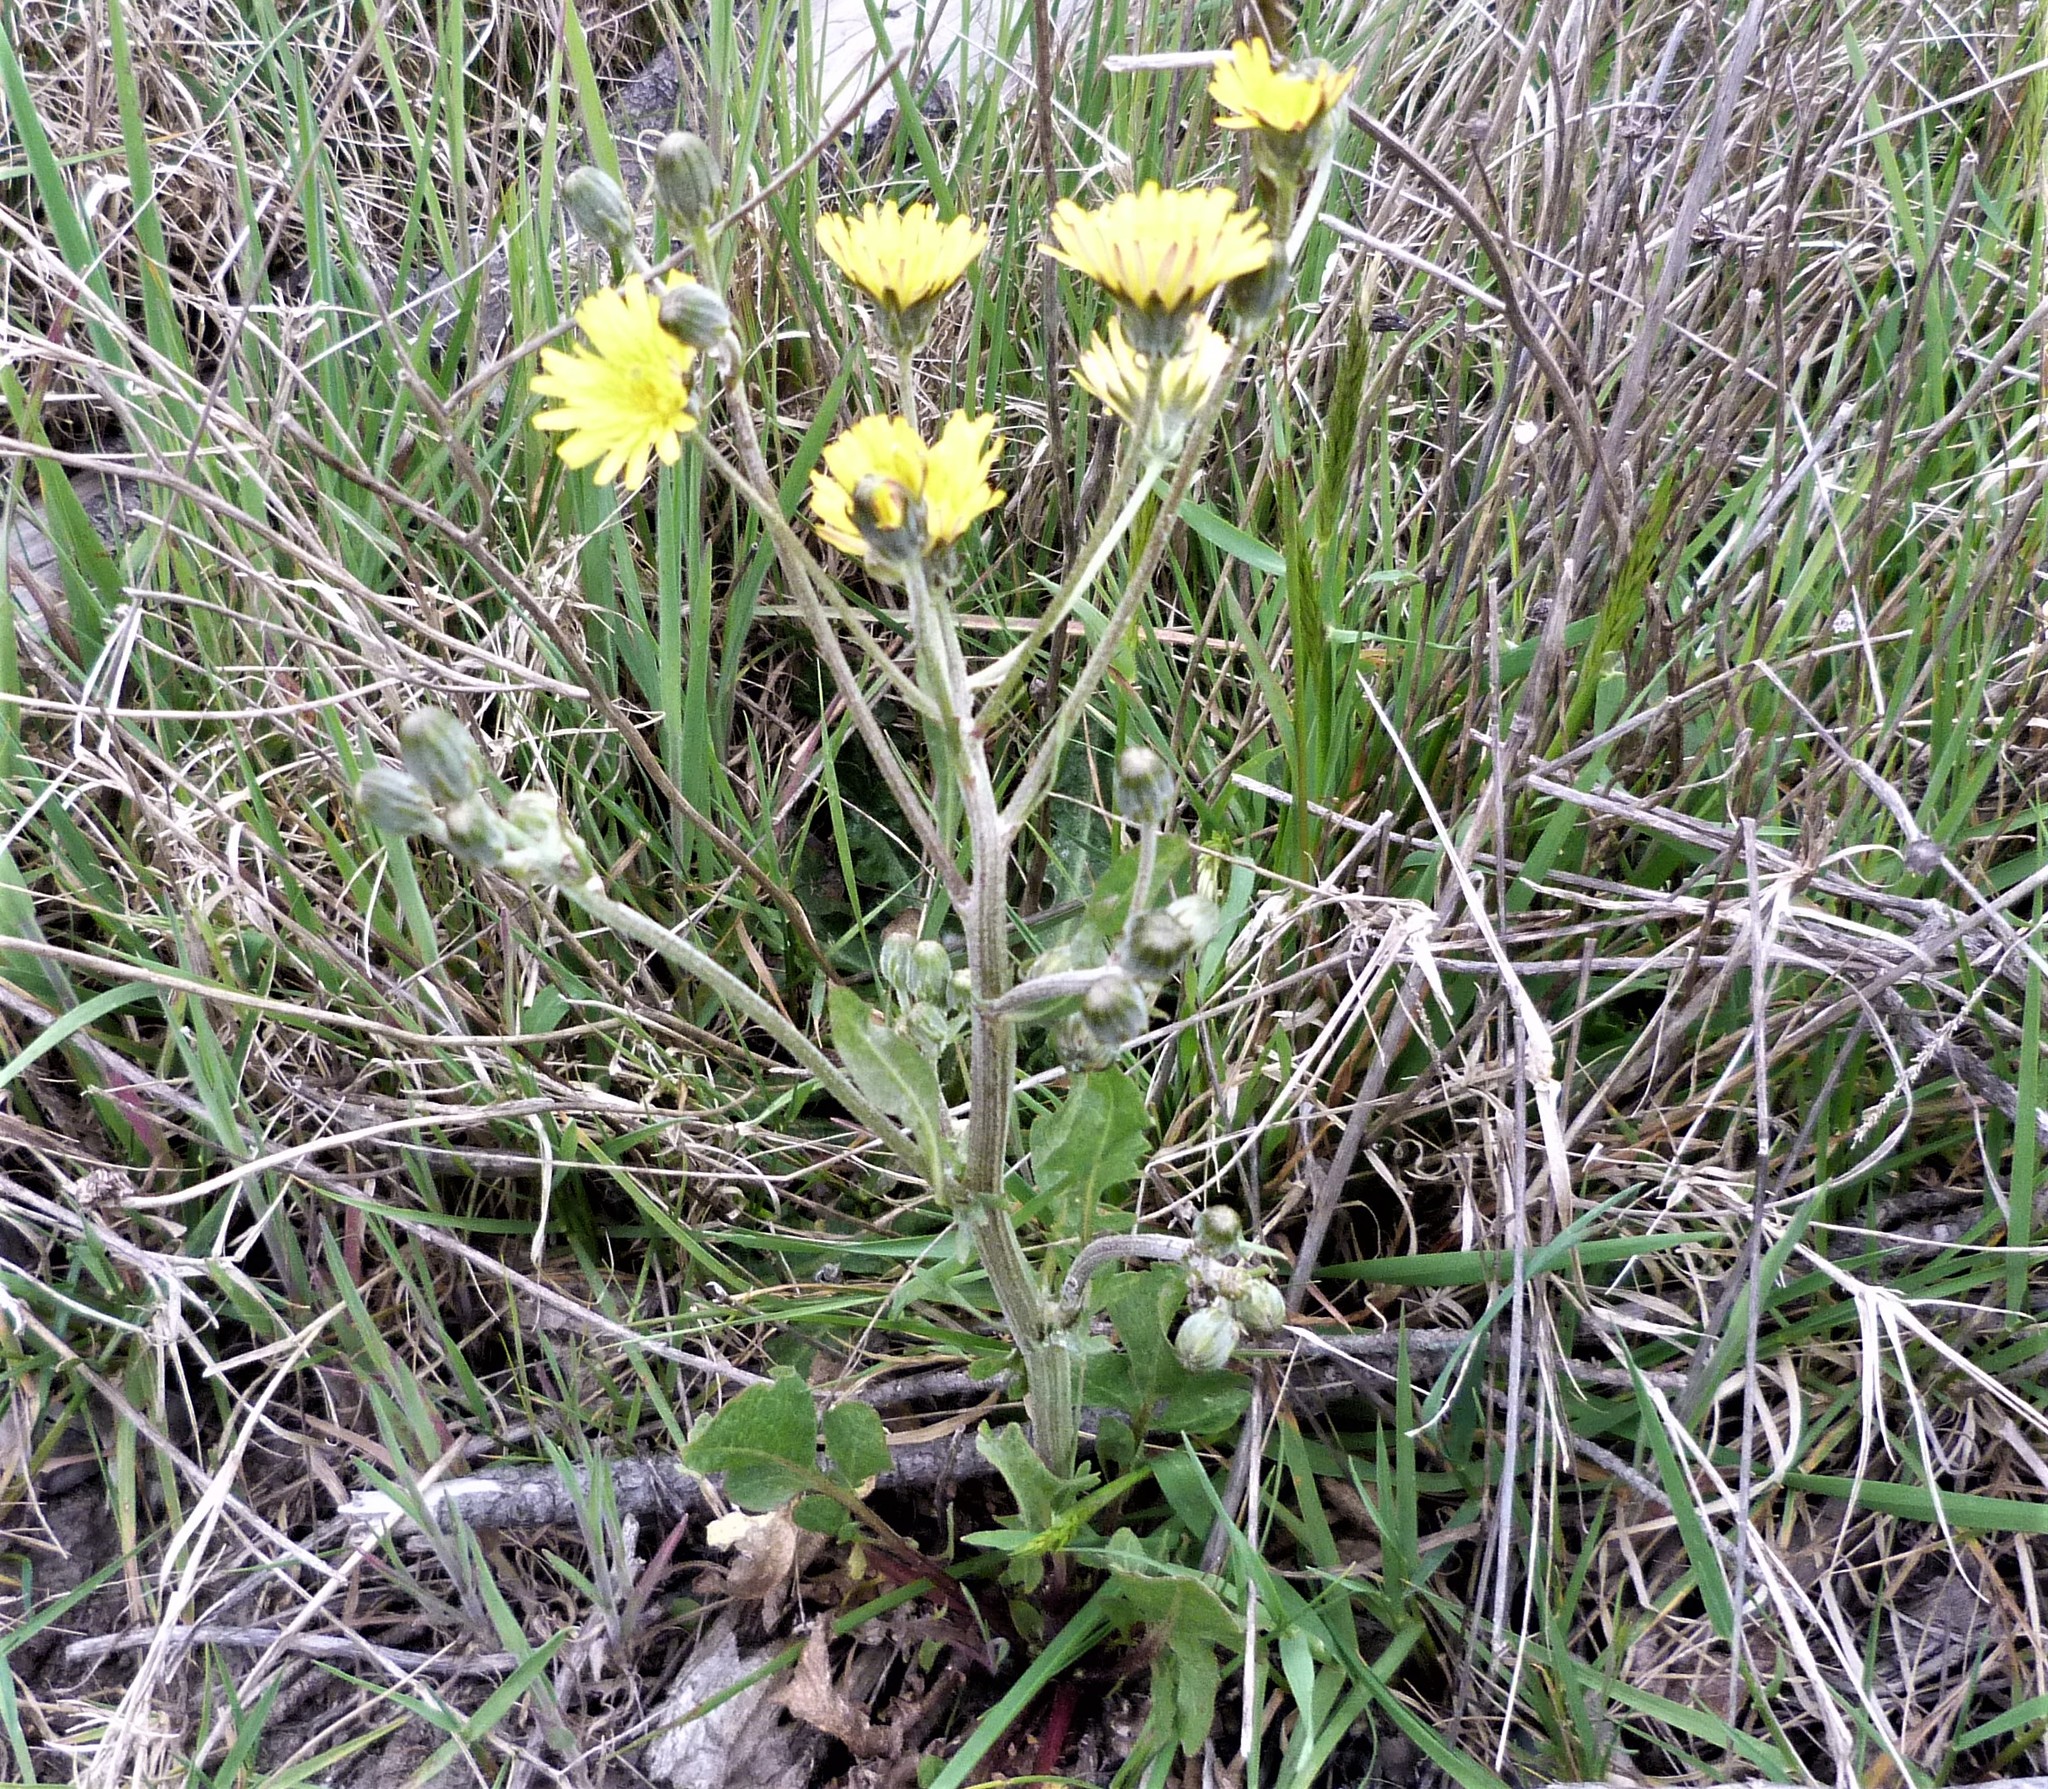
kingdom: Plantae
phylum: Tracheophyta
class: Magnoliopsida
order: Asterales
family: Asteraceae
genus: Crepis
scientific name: Crepis vesicaria
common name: Beaked hawksbeard
